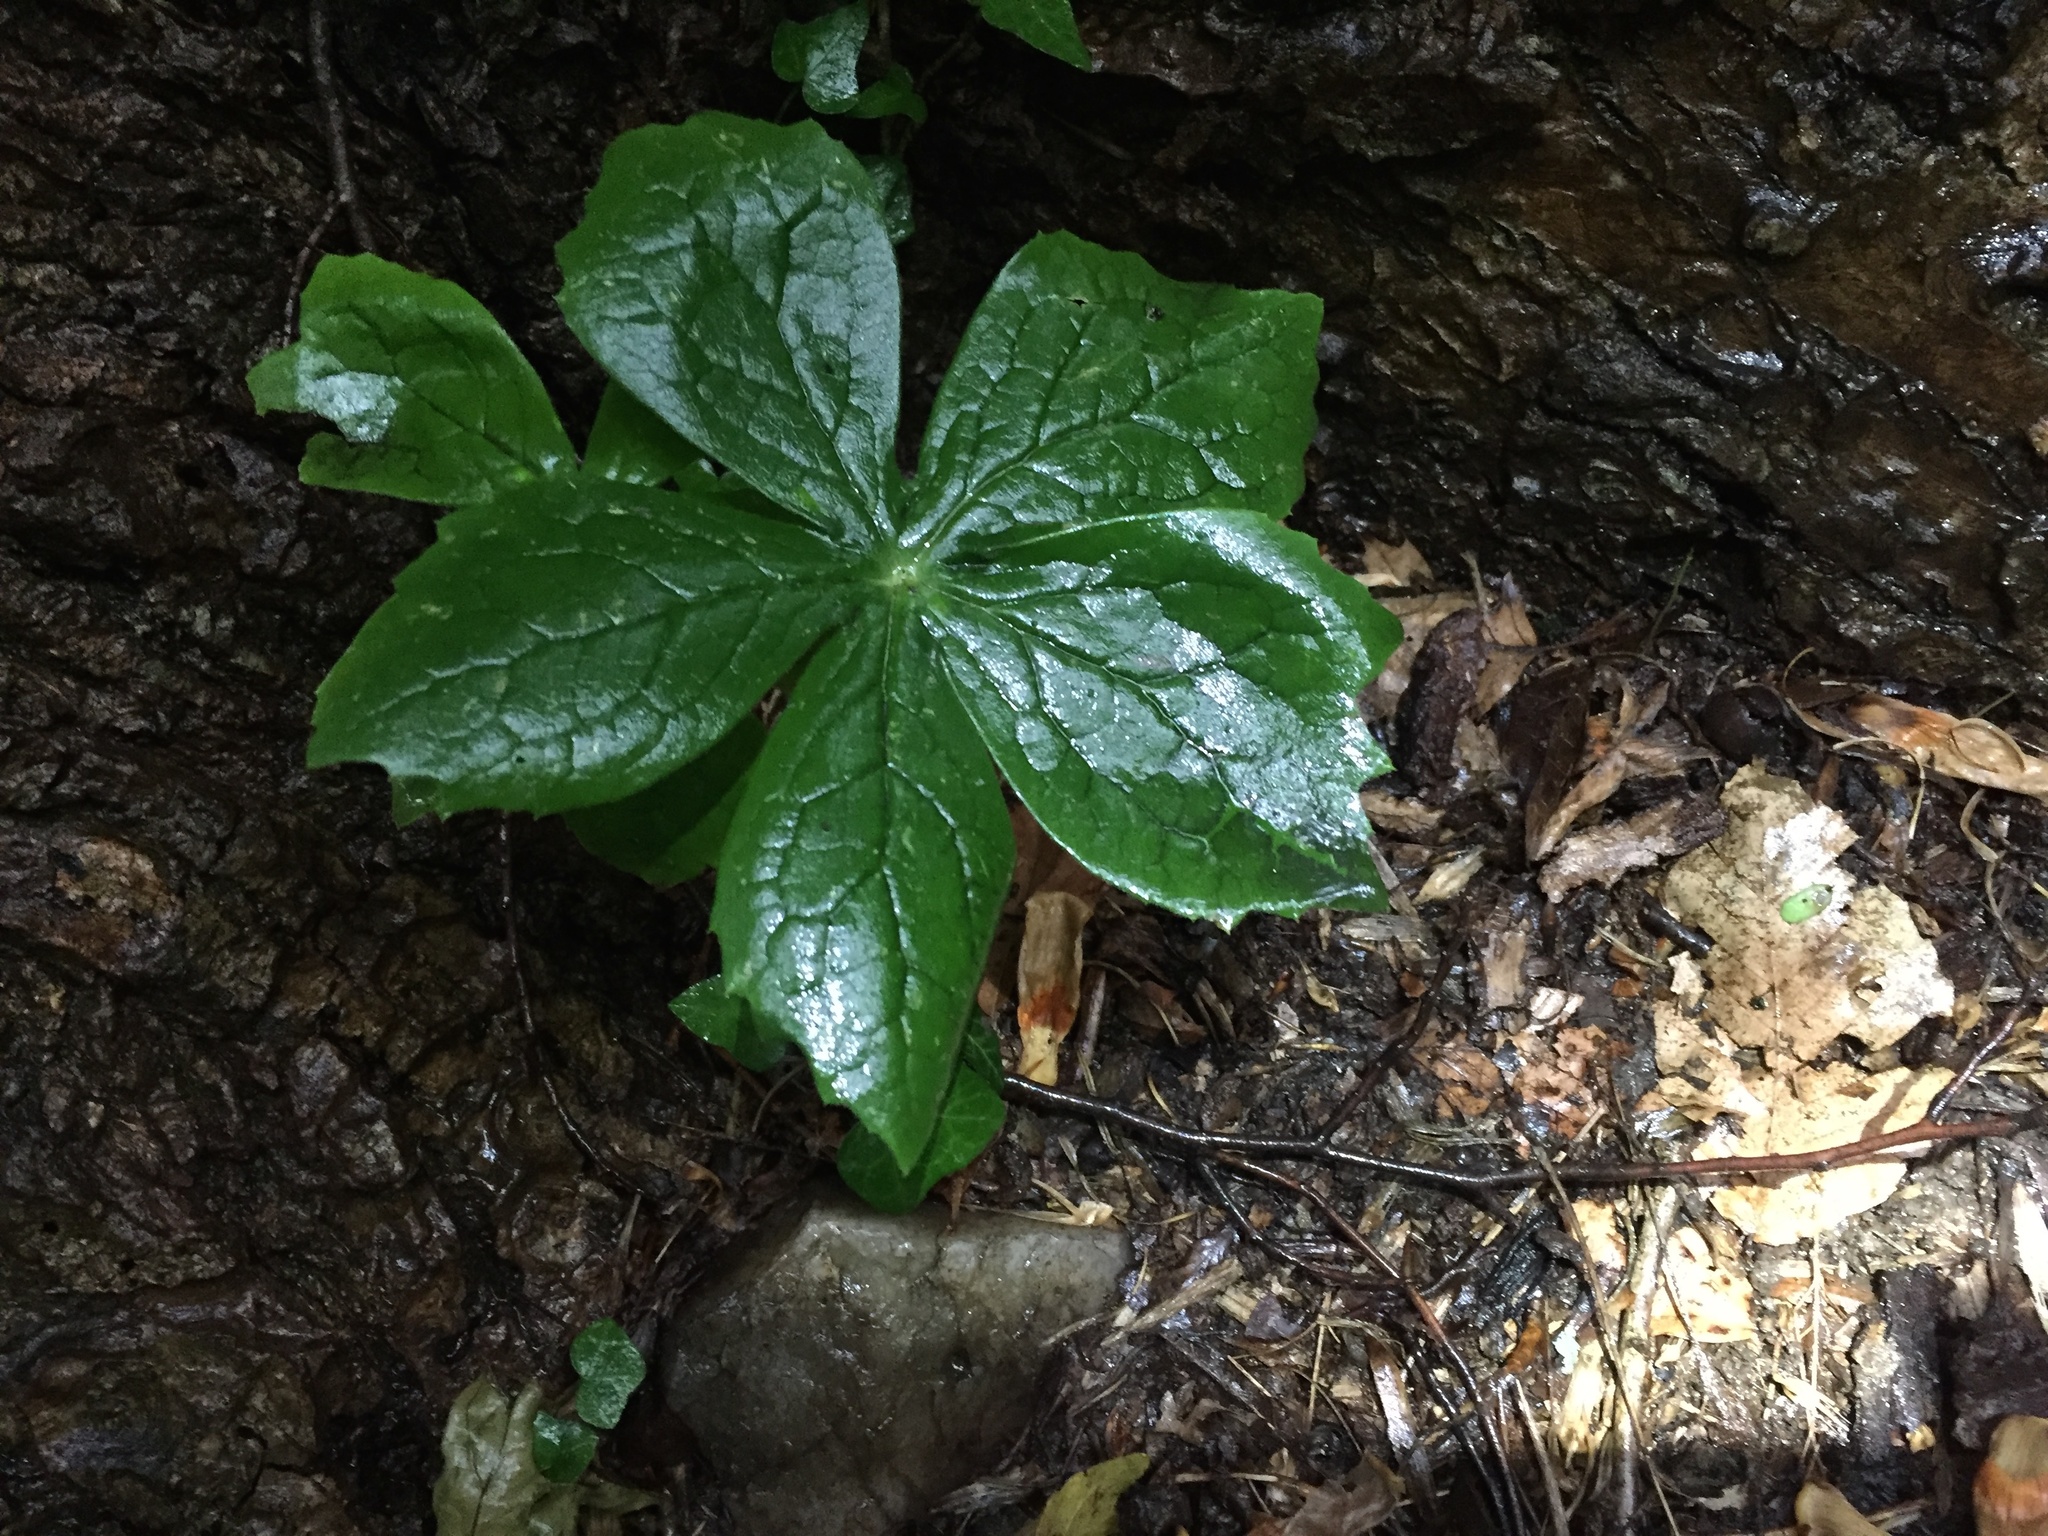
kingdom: Plantae
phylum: Tracheophyta
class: Magnoliopsida
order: Ranunculales
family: Berberidaceae
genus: Podophyllum
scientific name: Podophyllum peltatum
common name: Wild mandrake
